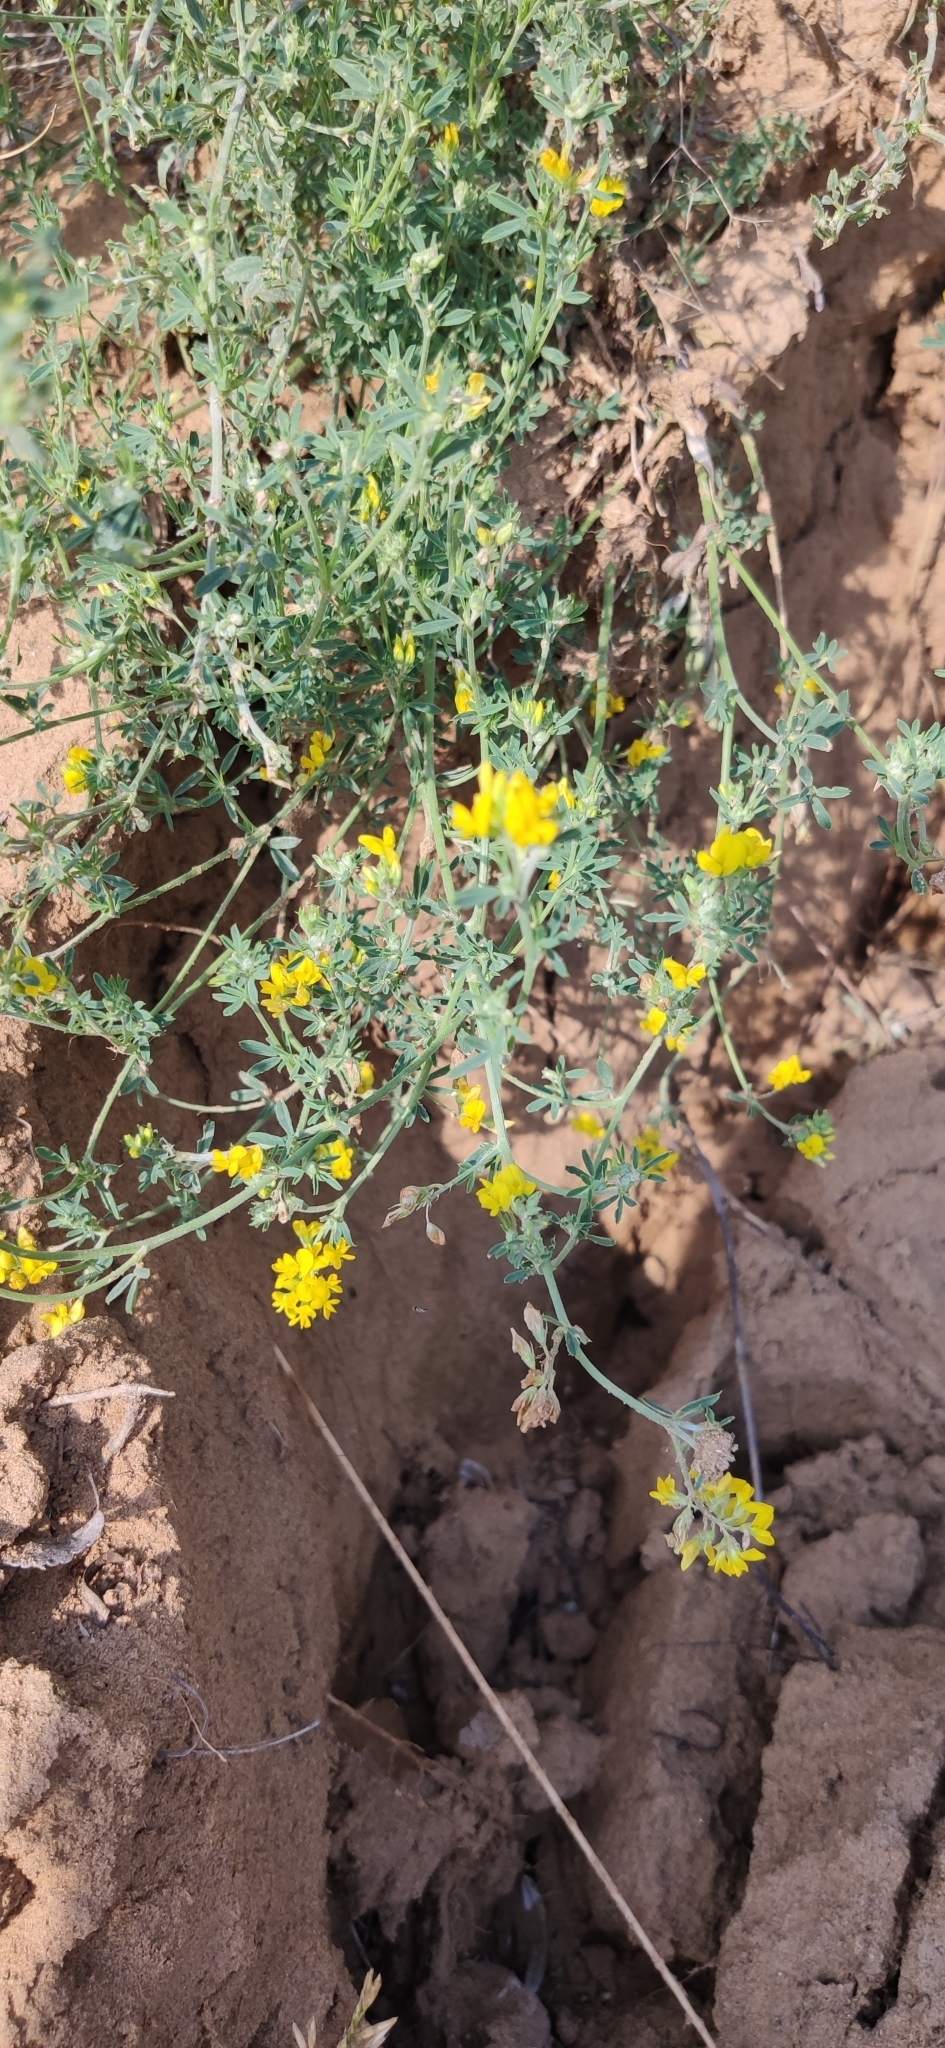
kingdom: Plantae
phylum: Tracheophyta
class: Magnoliopsida
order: Fabales
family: Fabaceae
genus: Medicago
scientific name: Medicago falcata
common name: Sickle medick
